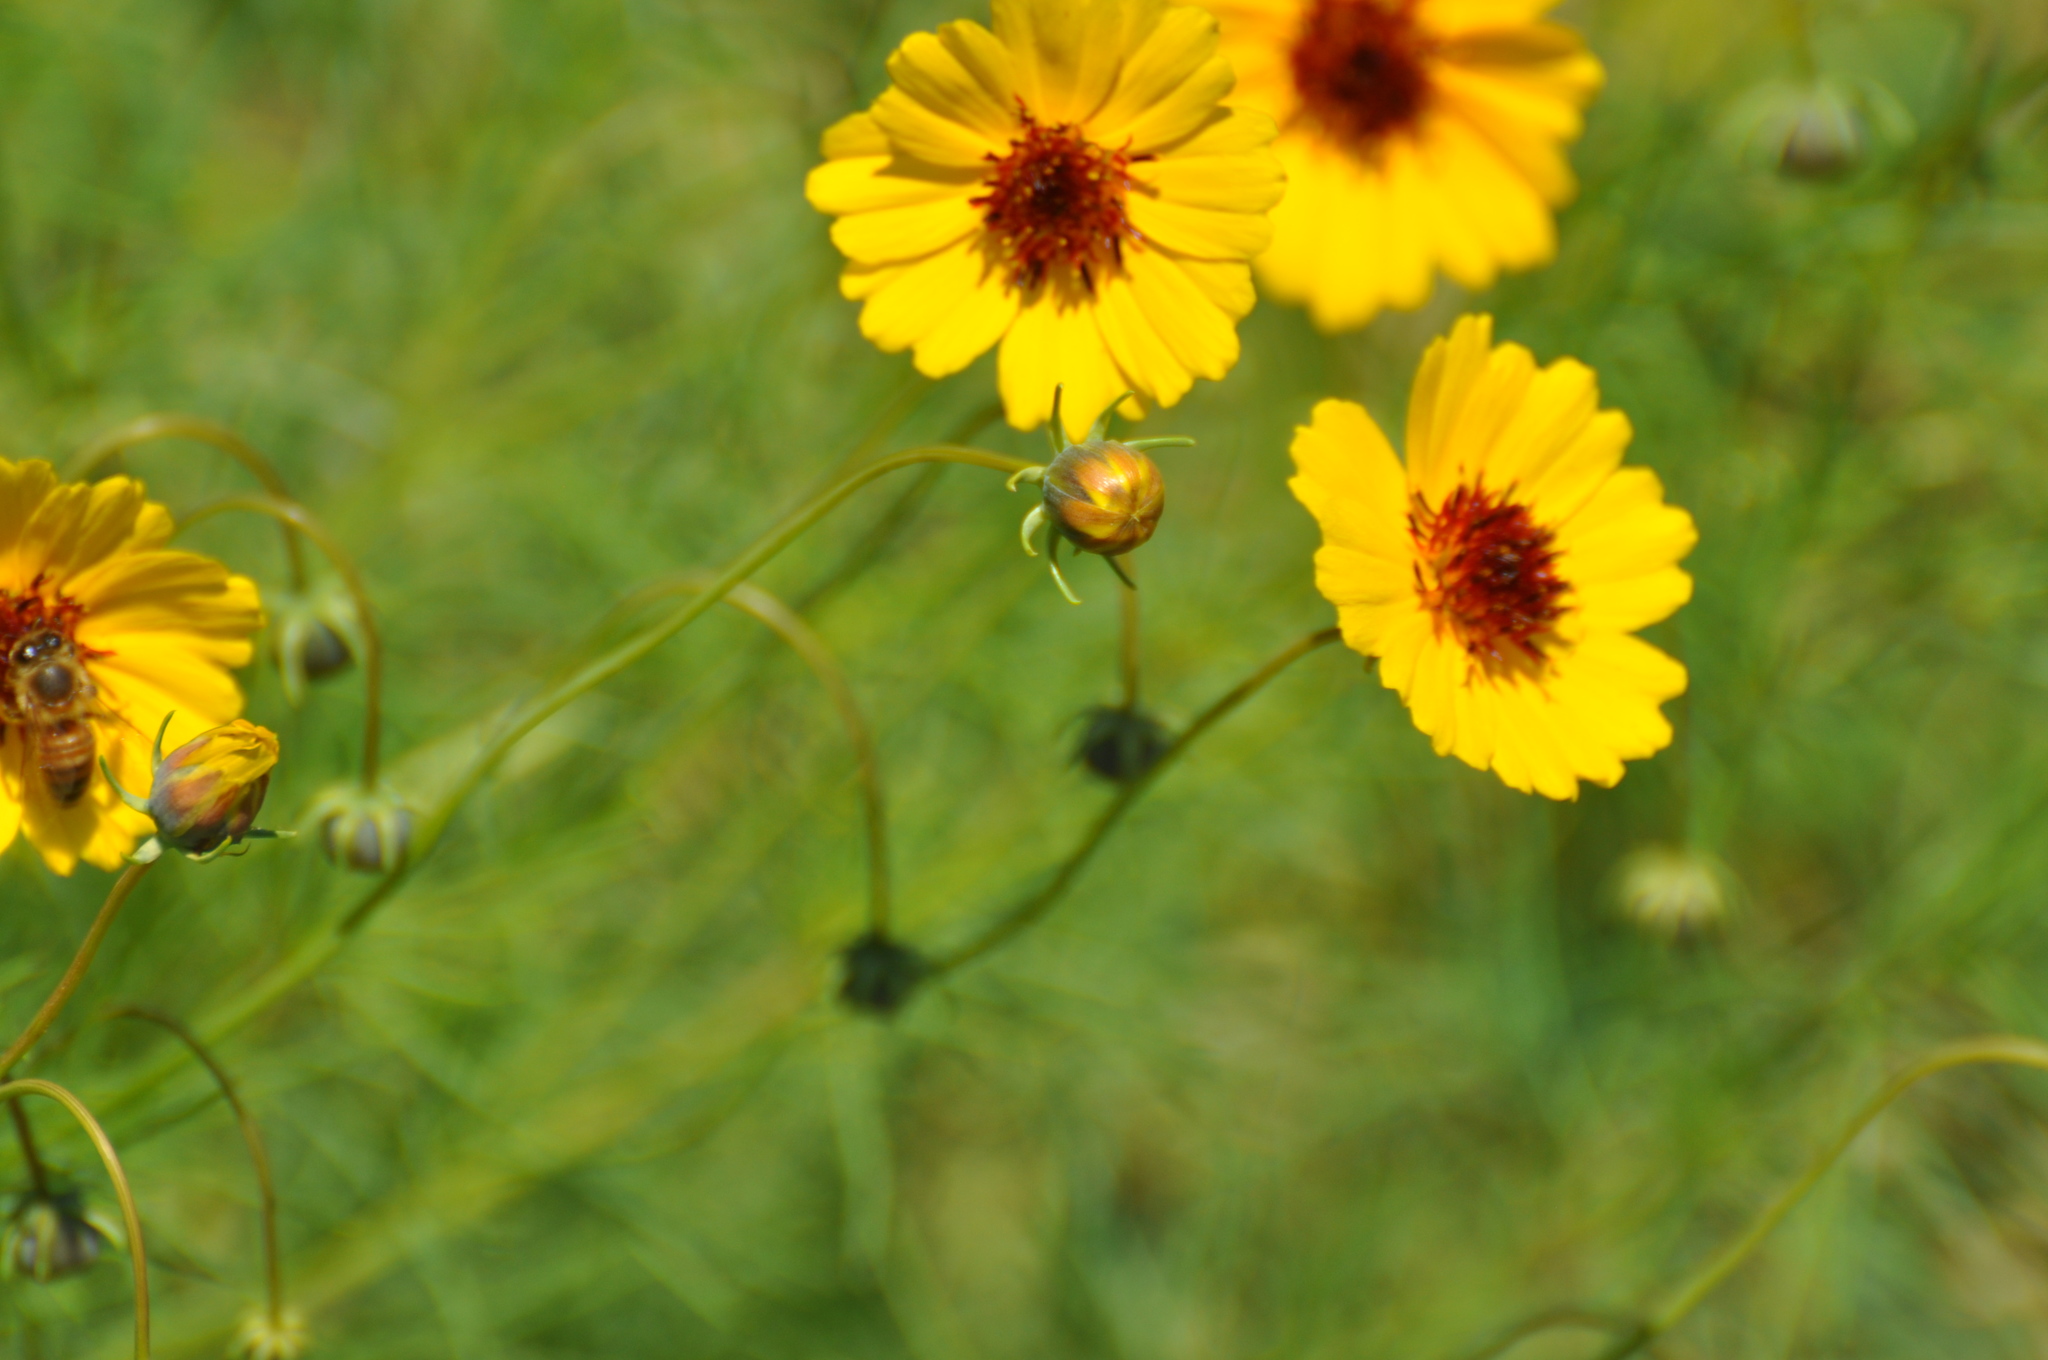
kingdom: Plantae
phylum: Tracheophyta
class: Magnoliopsida
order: Asterales
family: Asteraceae
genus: Thelesperma
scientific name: Thelesperma filifolium
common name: Stiff greenthread
